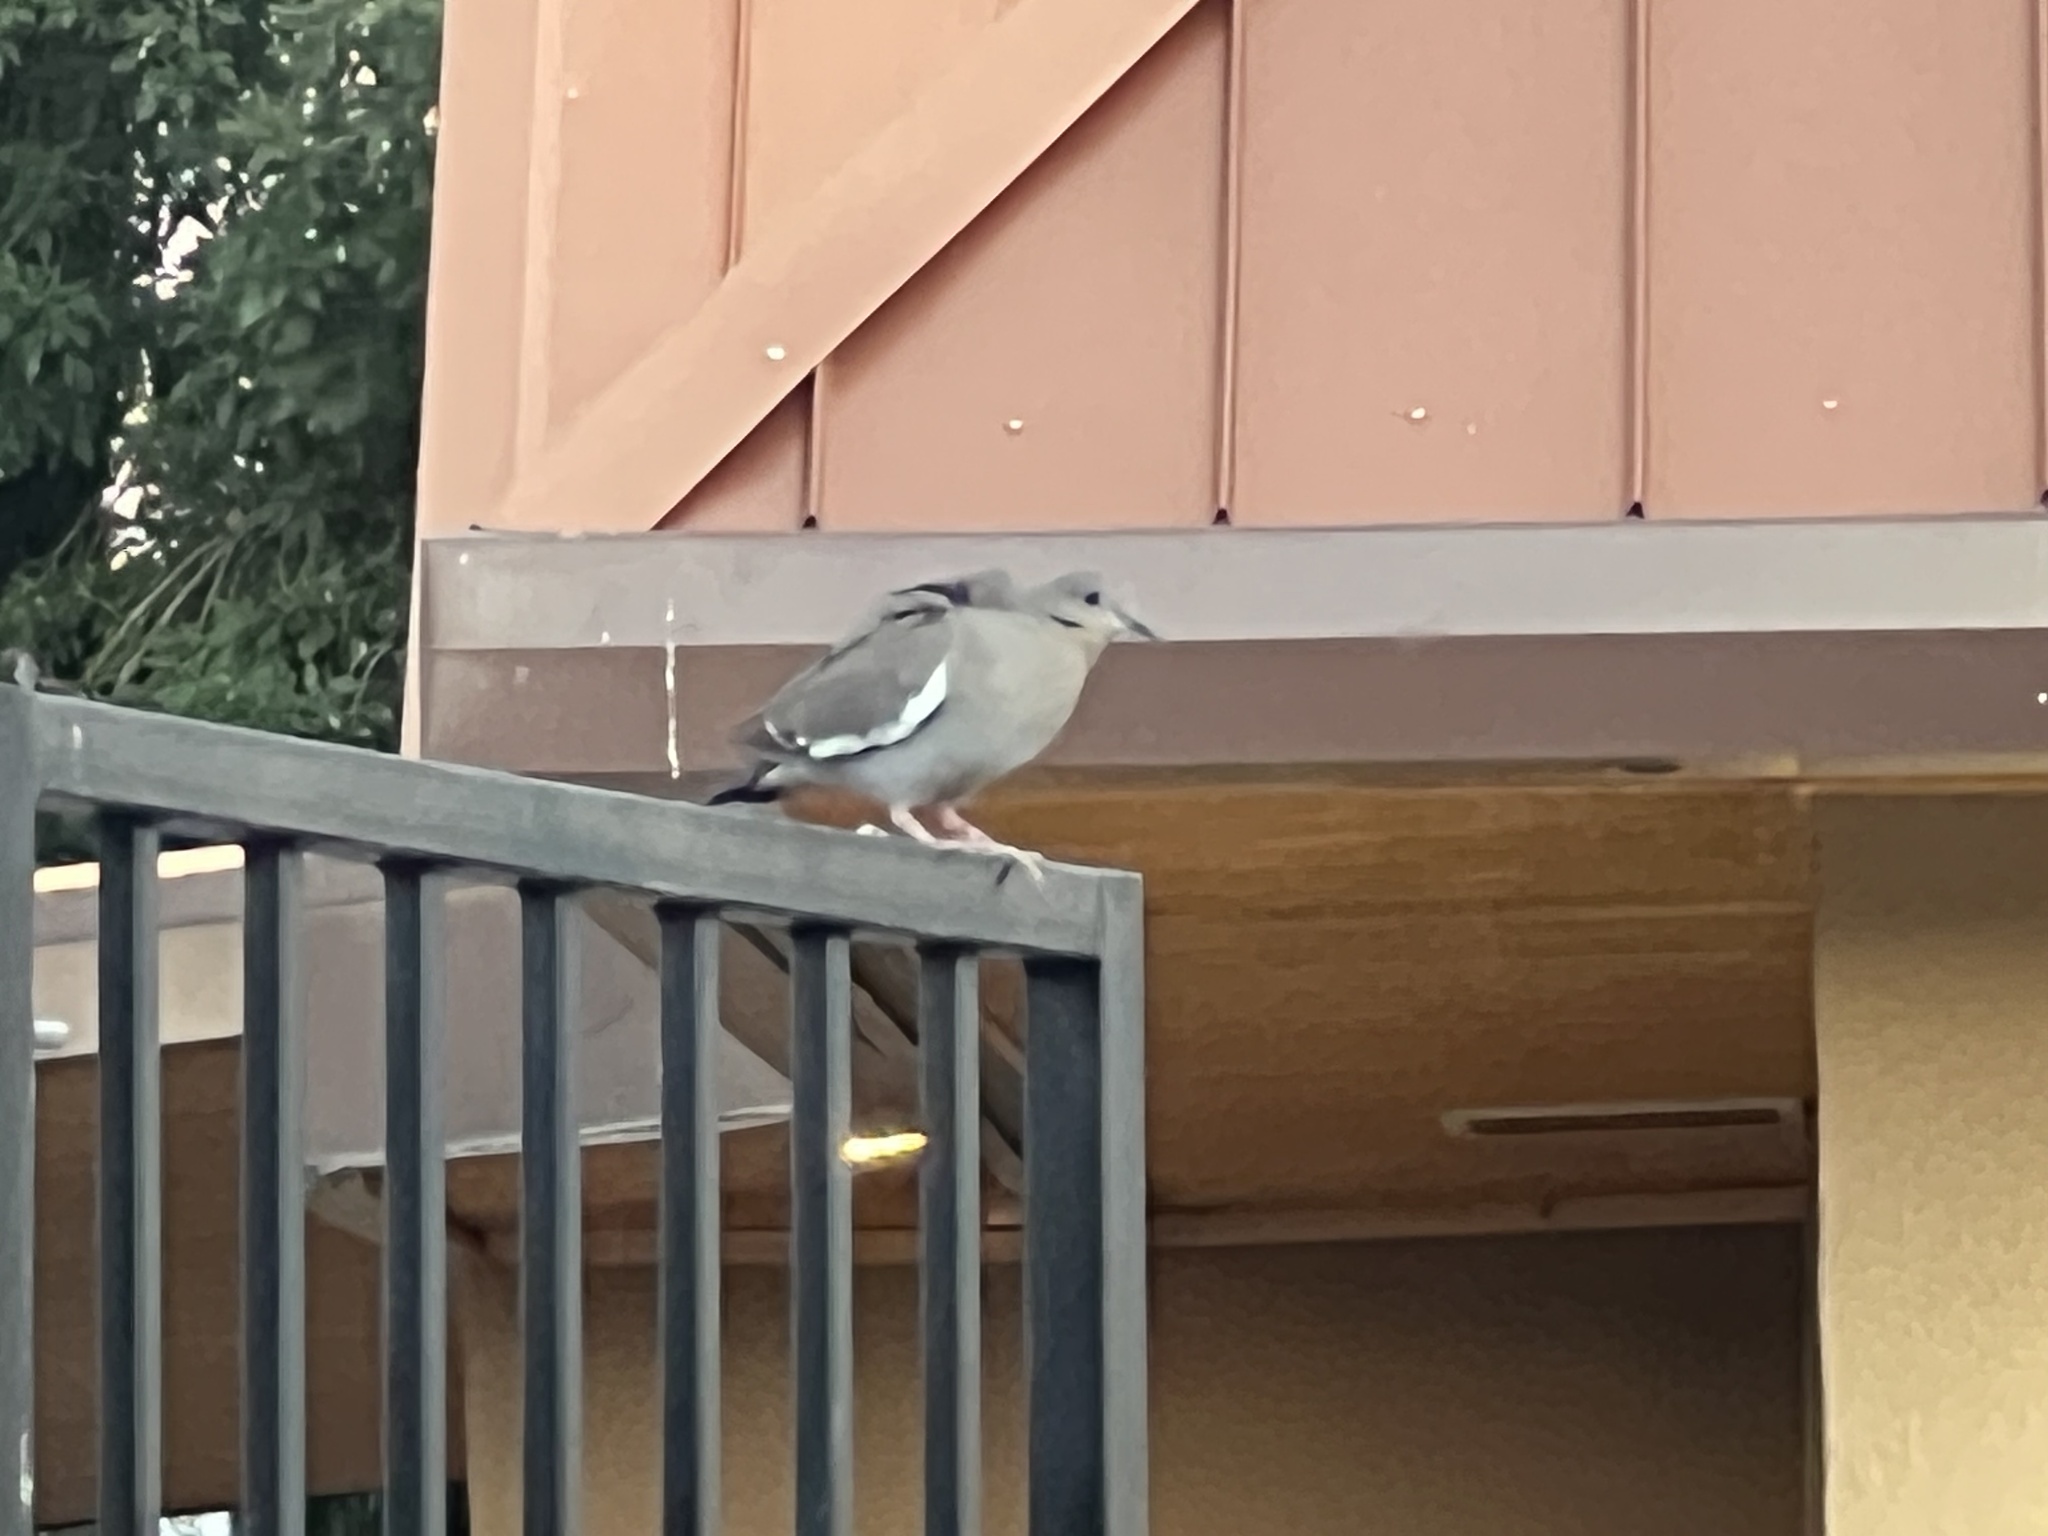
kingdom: Animalia
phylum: Chordata
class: Aves
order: Columbiformes
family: Columbidae
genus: Zenaida
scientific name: Zenaida asiatica
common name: White-winged dove
